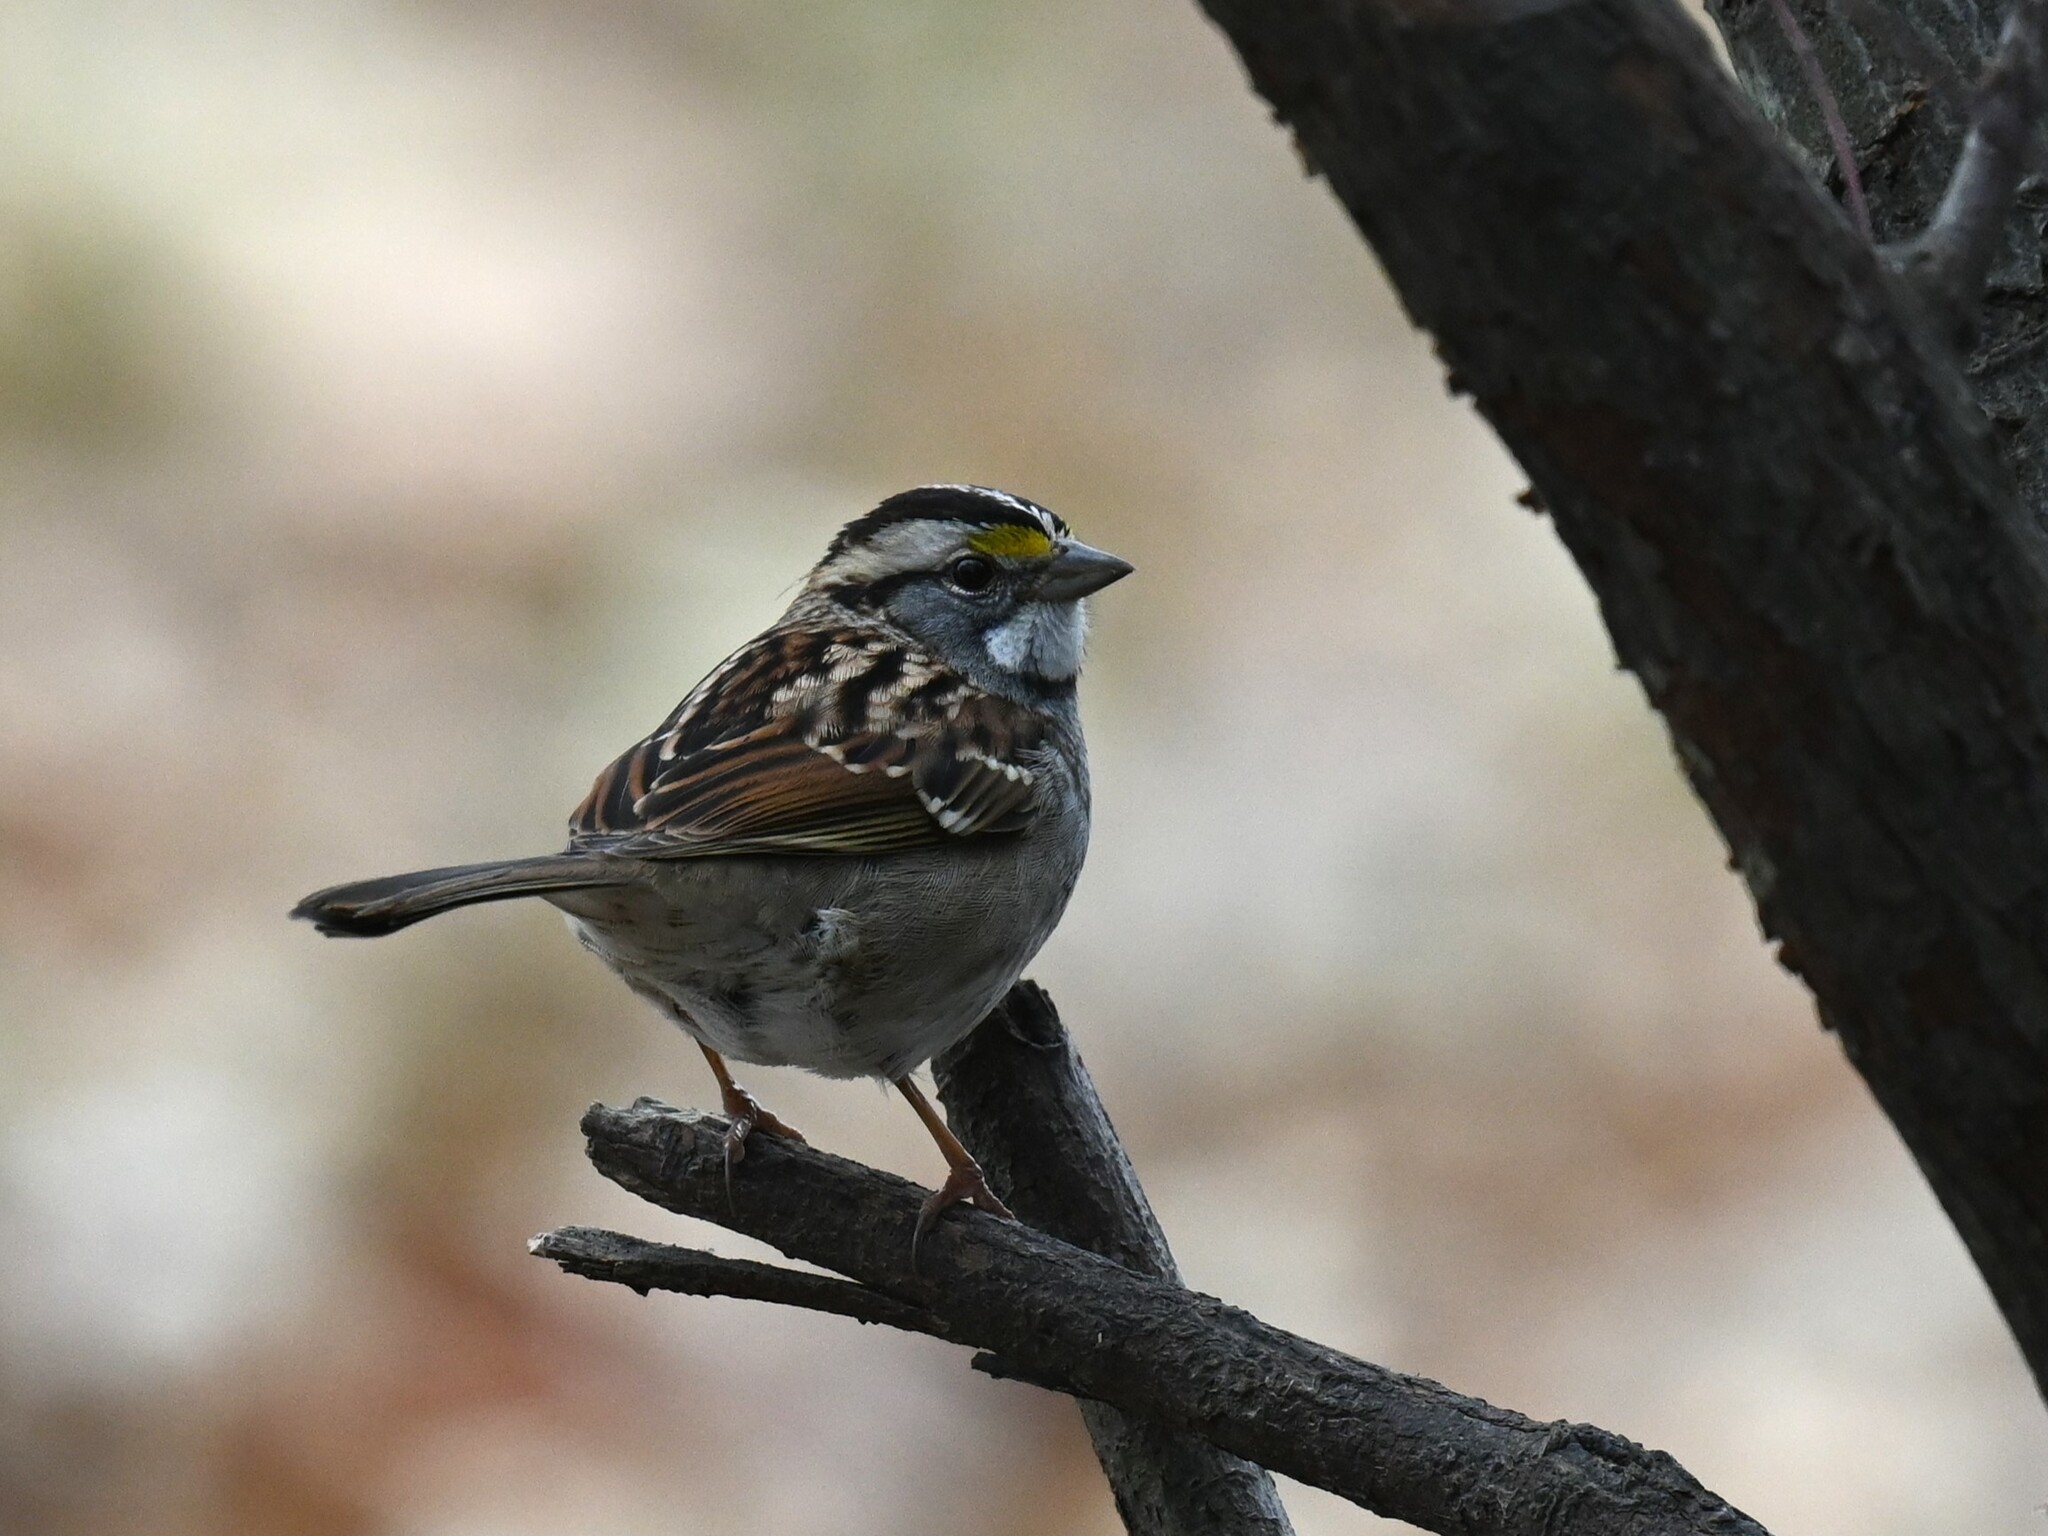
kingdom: Animalia
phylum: Chordata
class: Aves
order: Passeriformes
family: Passerellidae
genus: Zonotrichia
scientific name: Zonotrichia albicollis
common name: White-throated sparrow
